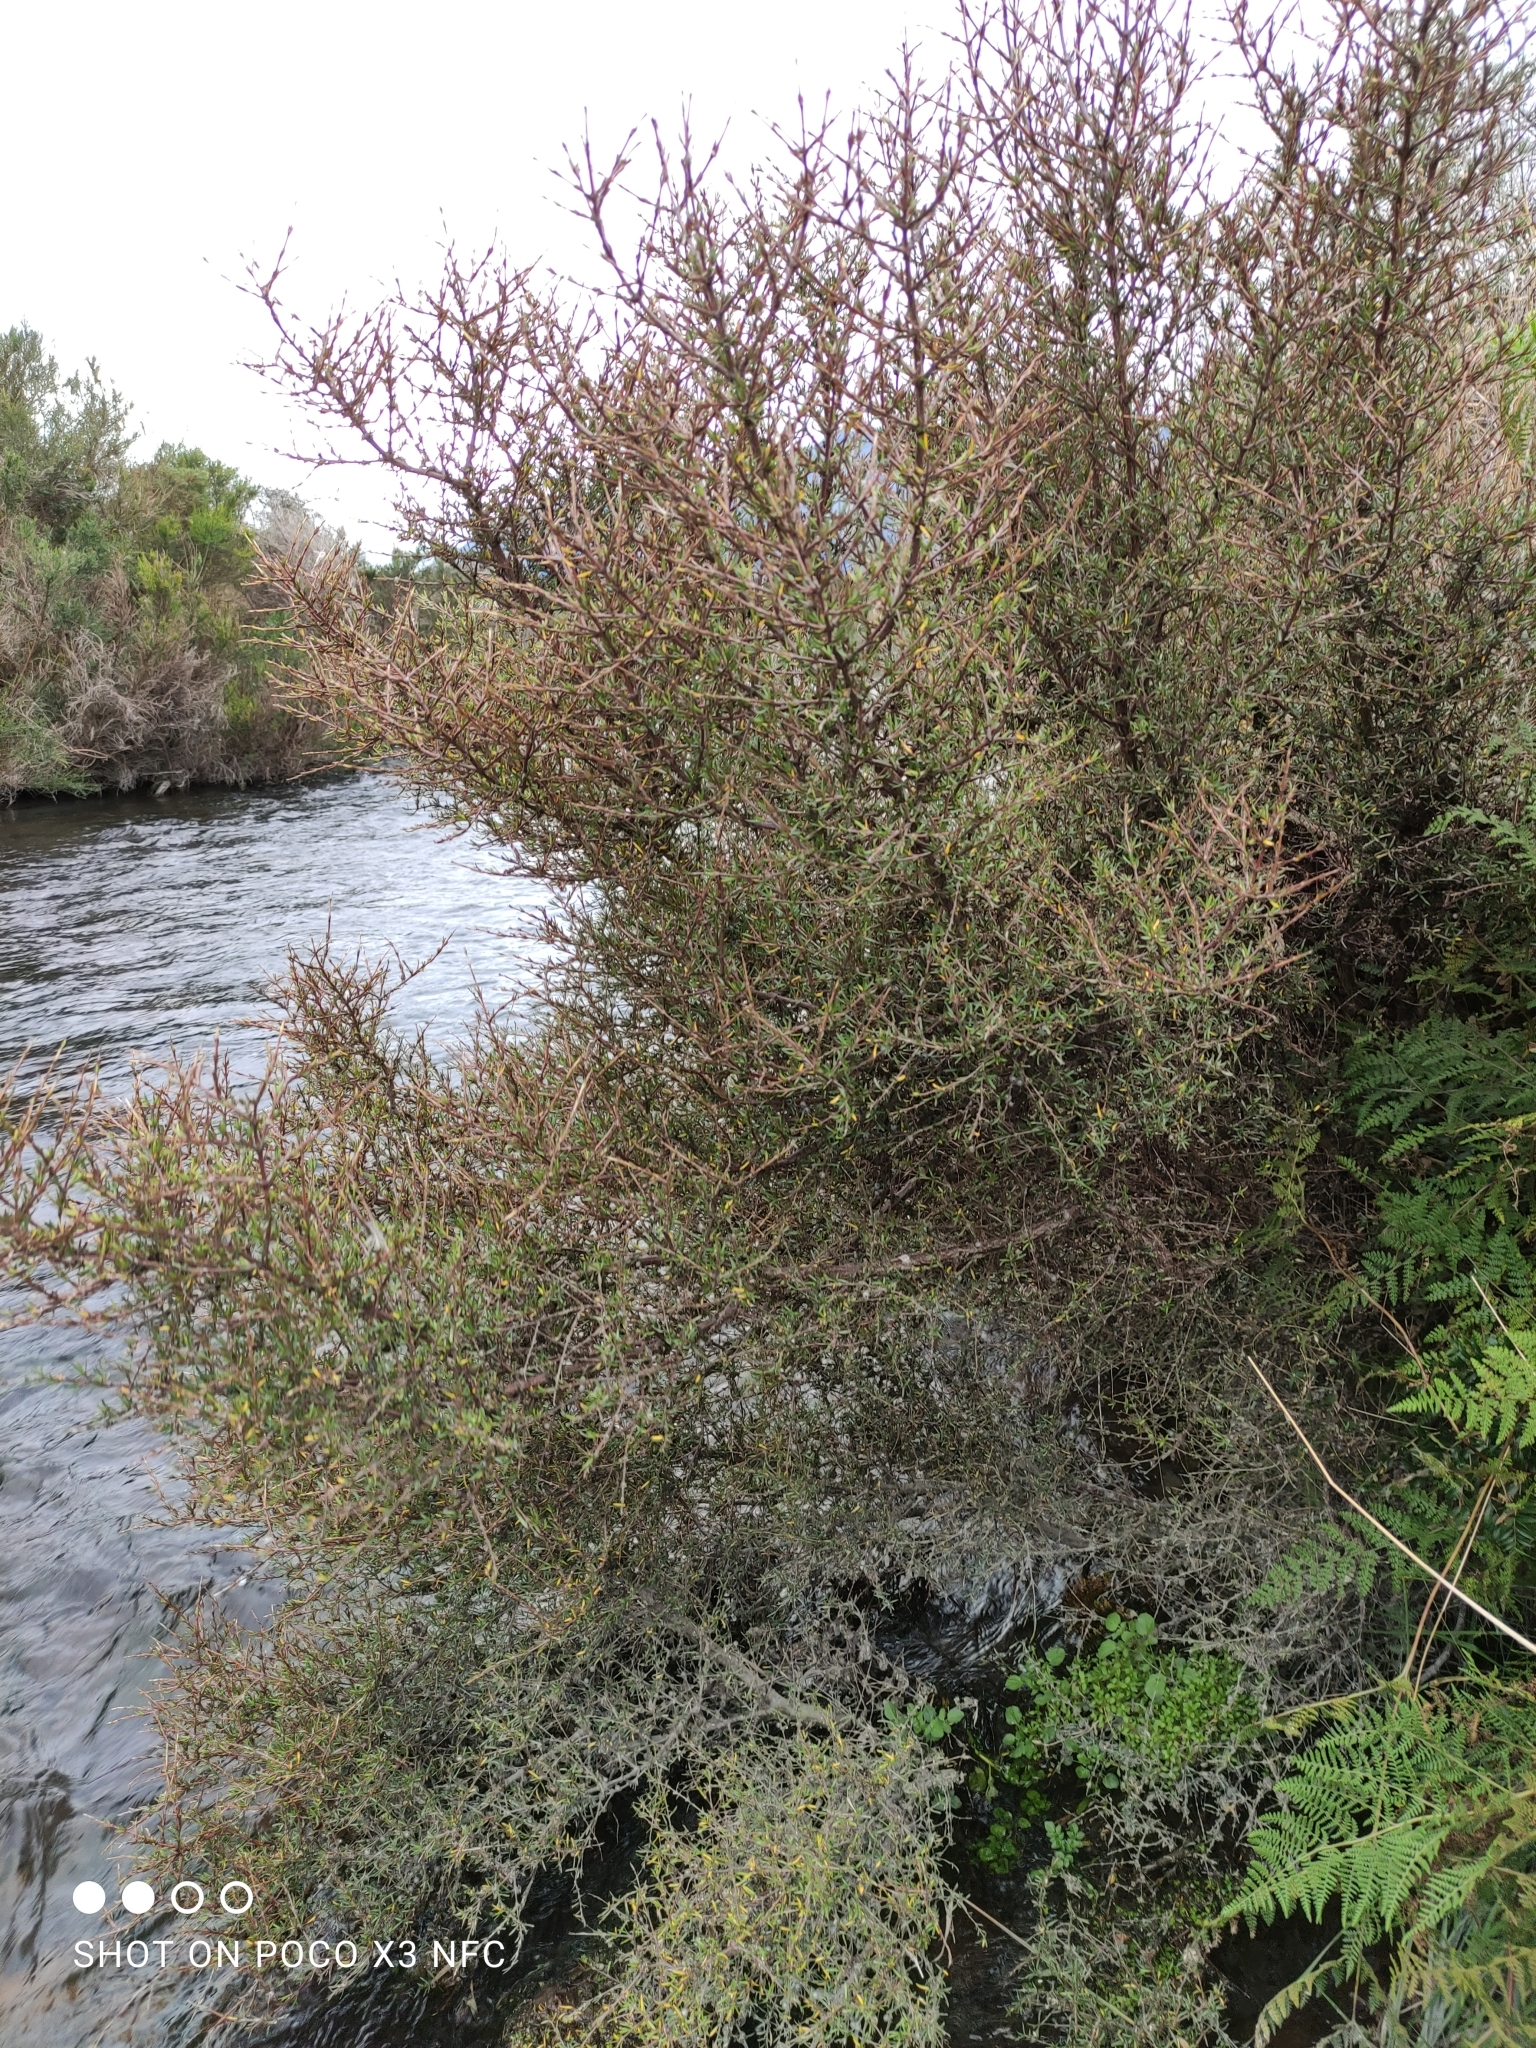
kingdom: Plantae
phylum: Tracheophyta
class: Magnoliopsida
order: Gentianales
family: Rubiaceae
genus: Coprosma
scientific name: Coprosma rugosa
